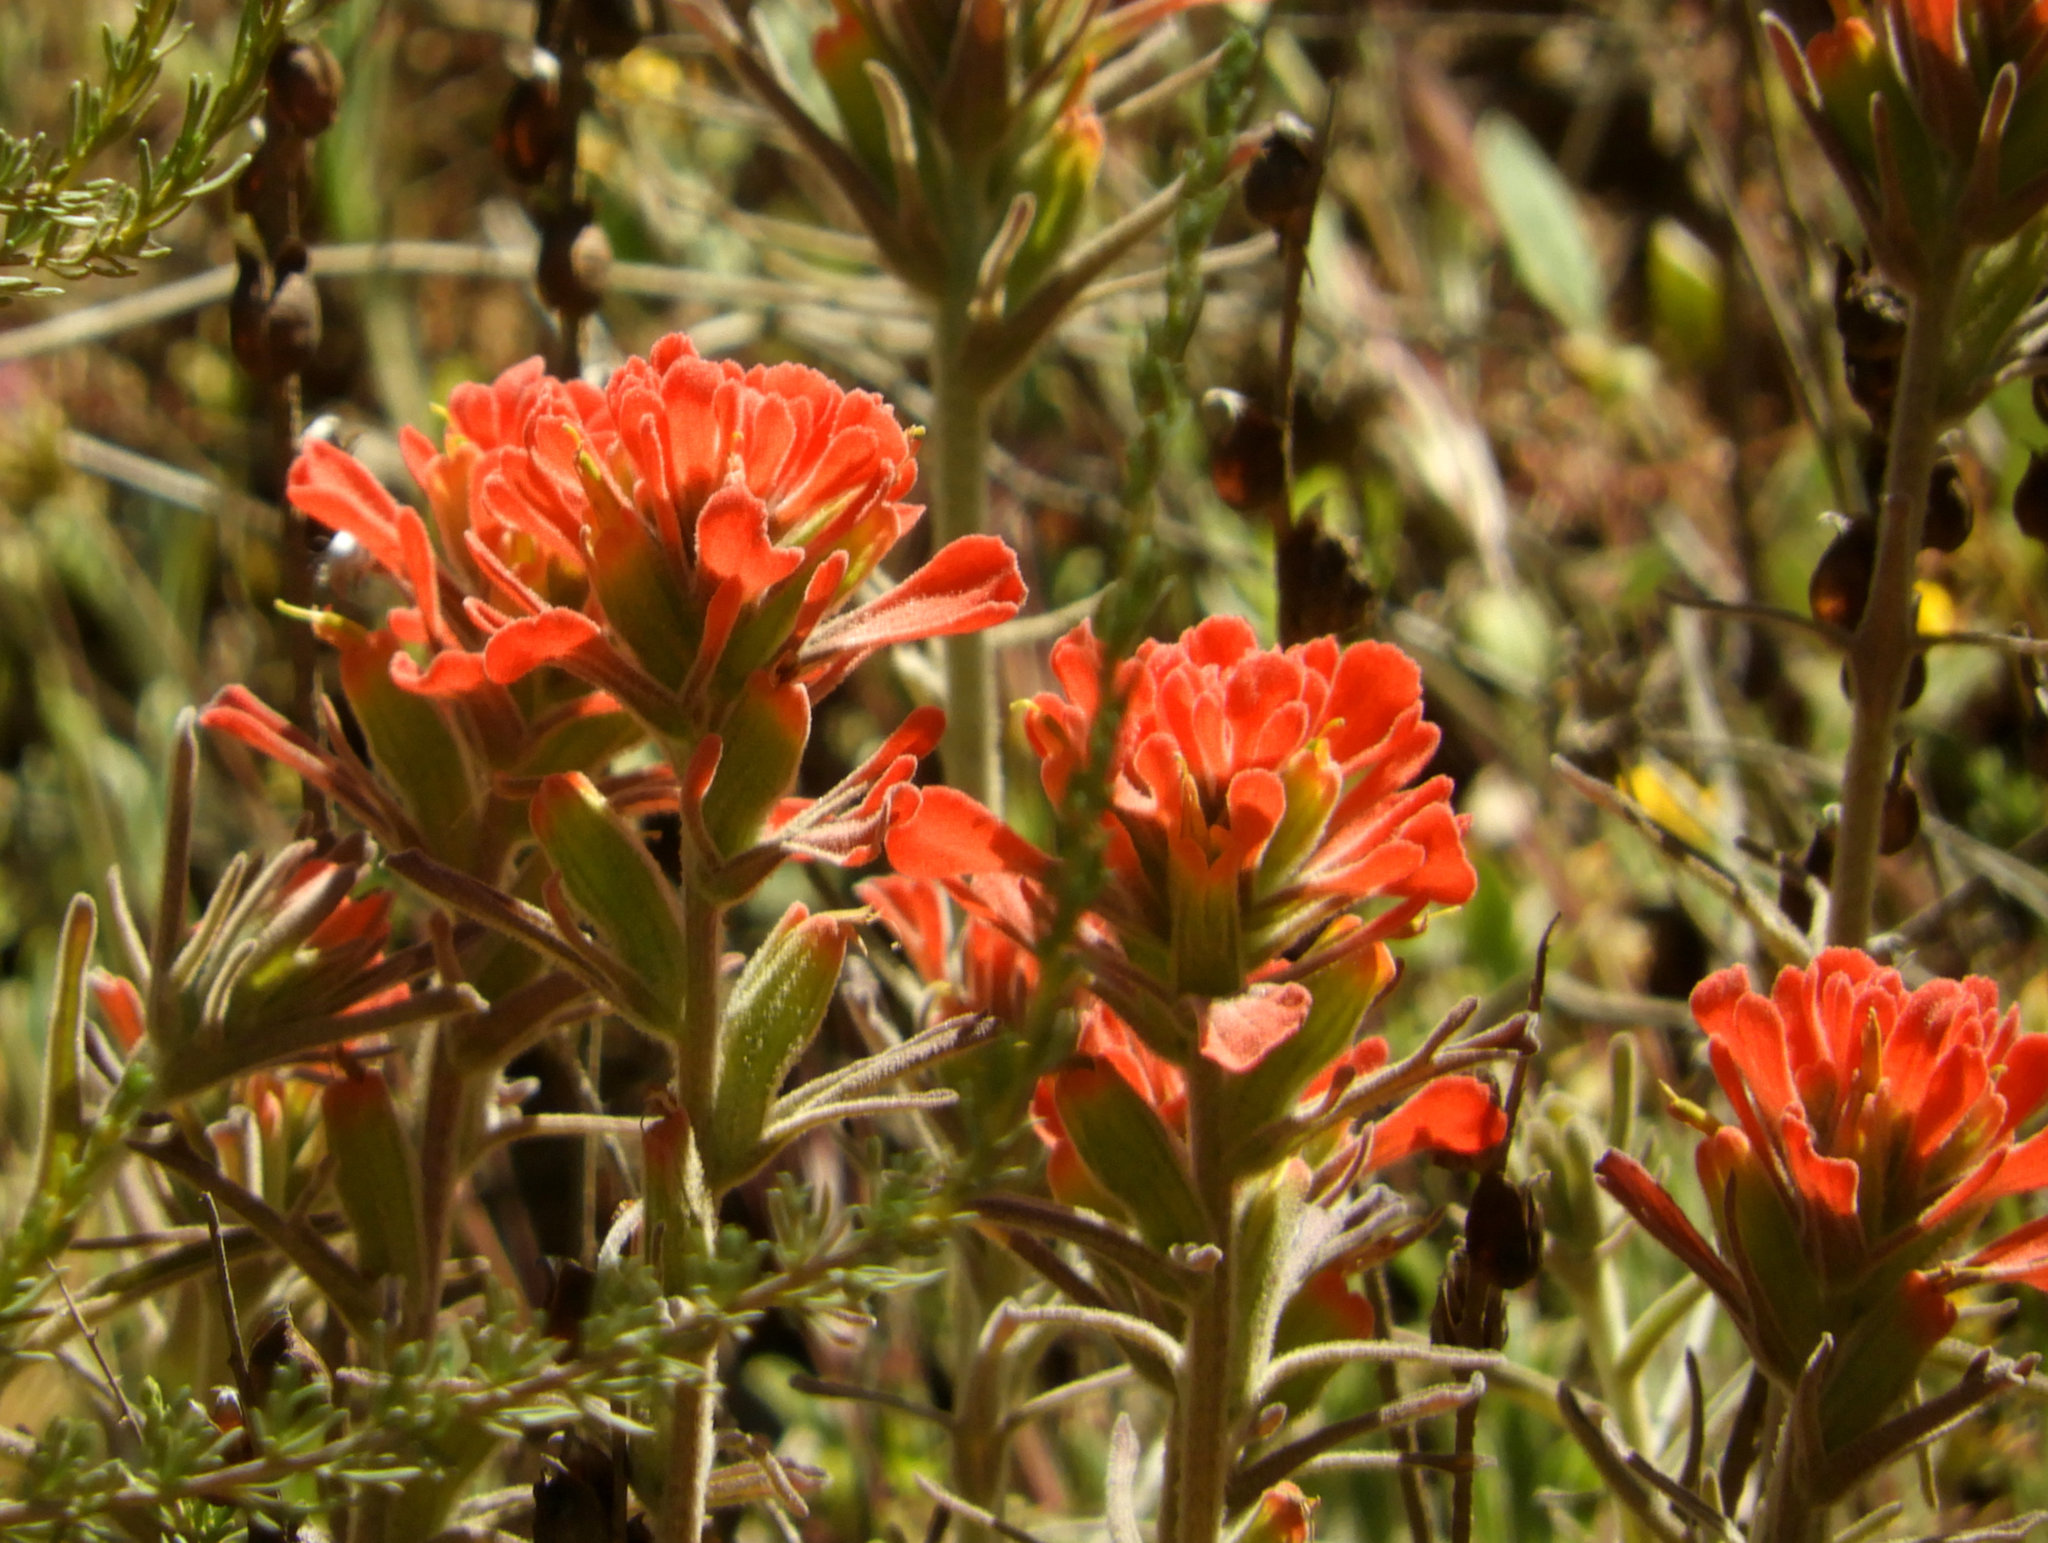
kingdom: Plantae
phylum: Tracheophyta
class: Magnoliopsida
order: Lamiales
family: Orobanchaceae
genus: Castilleja
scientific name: Castilleja foliolosa
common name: Woolly indian paintbrush
